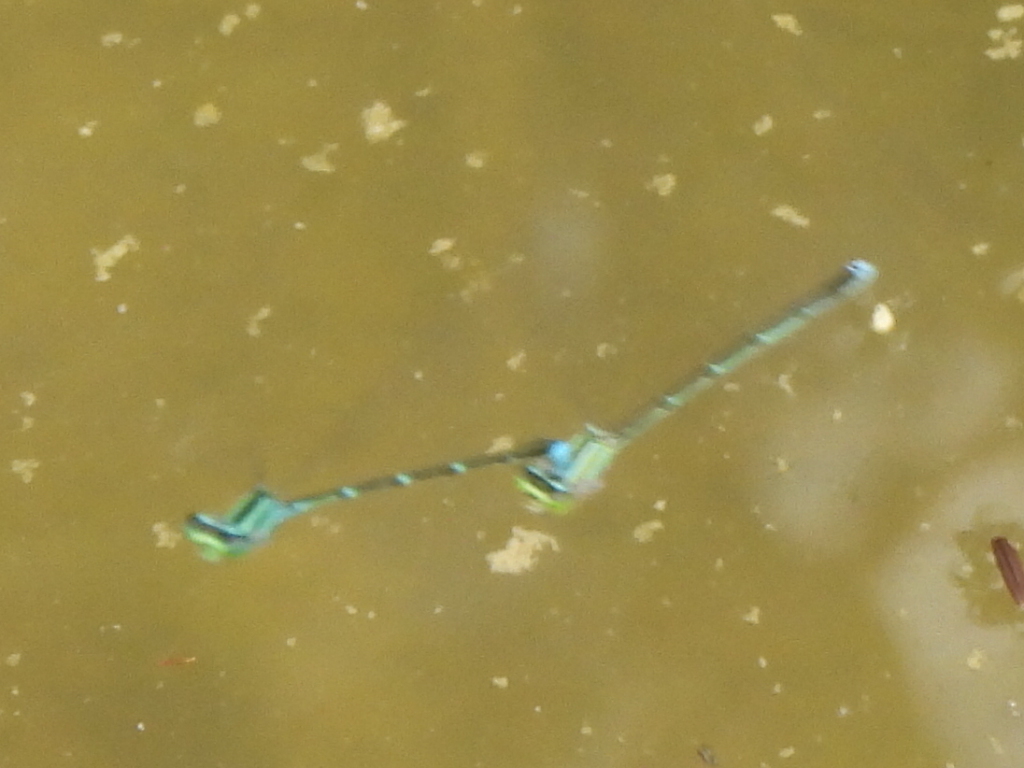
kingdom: Animalia
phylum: Arthropoda
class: Insecta
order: Odonata
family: Coenagrionidae
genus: Enallagma
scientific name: Enallagma exsulans
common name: Stream bluet
